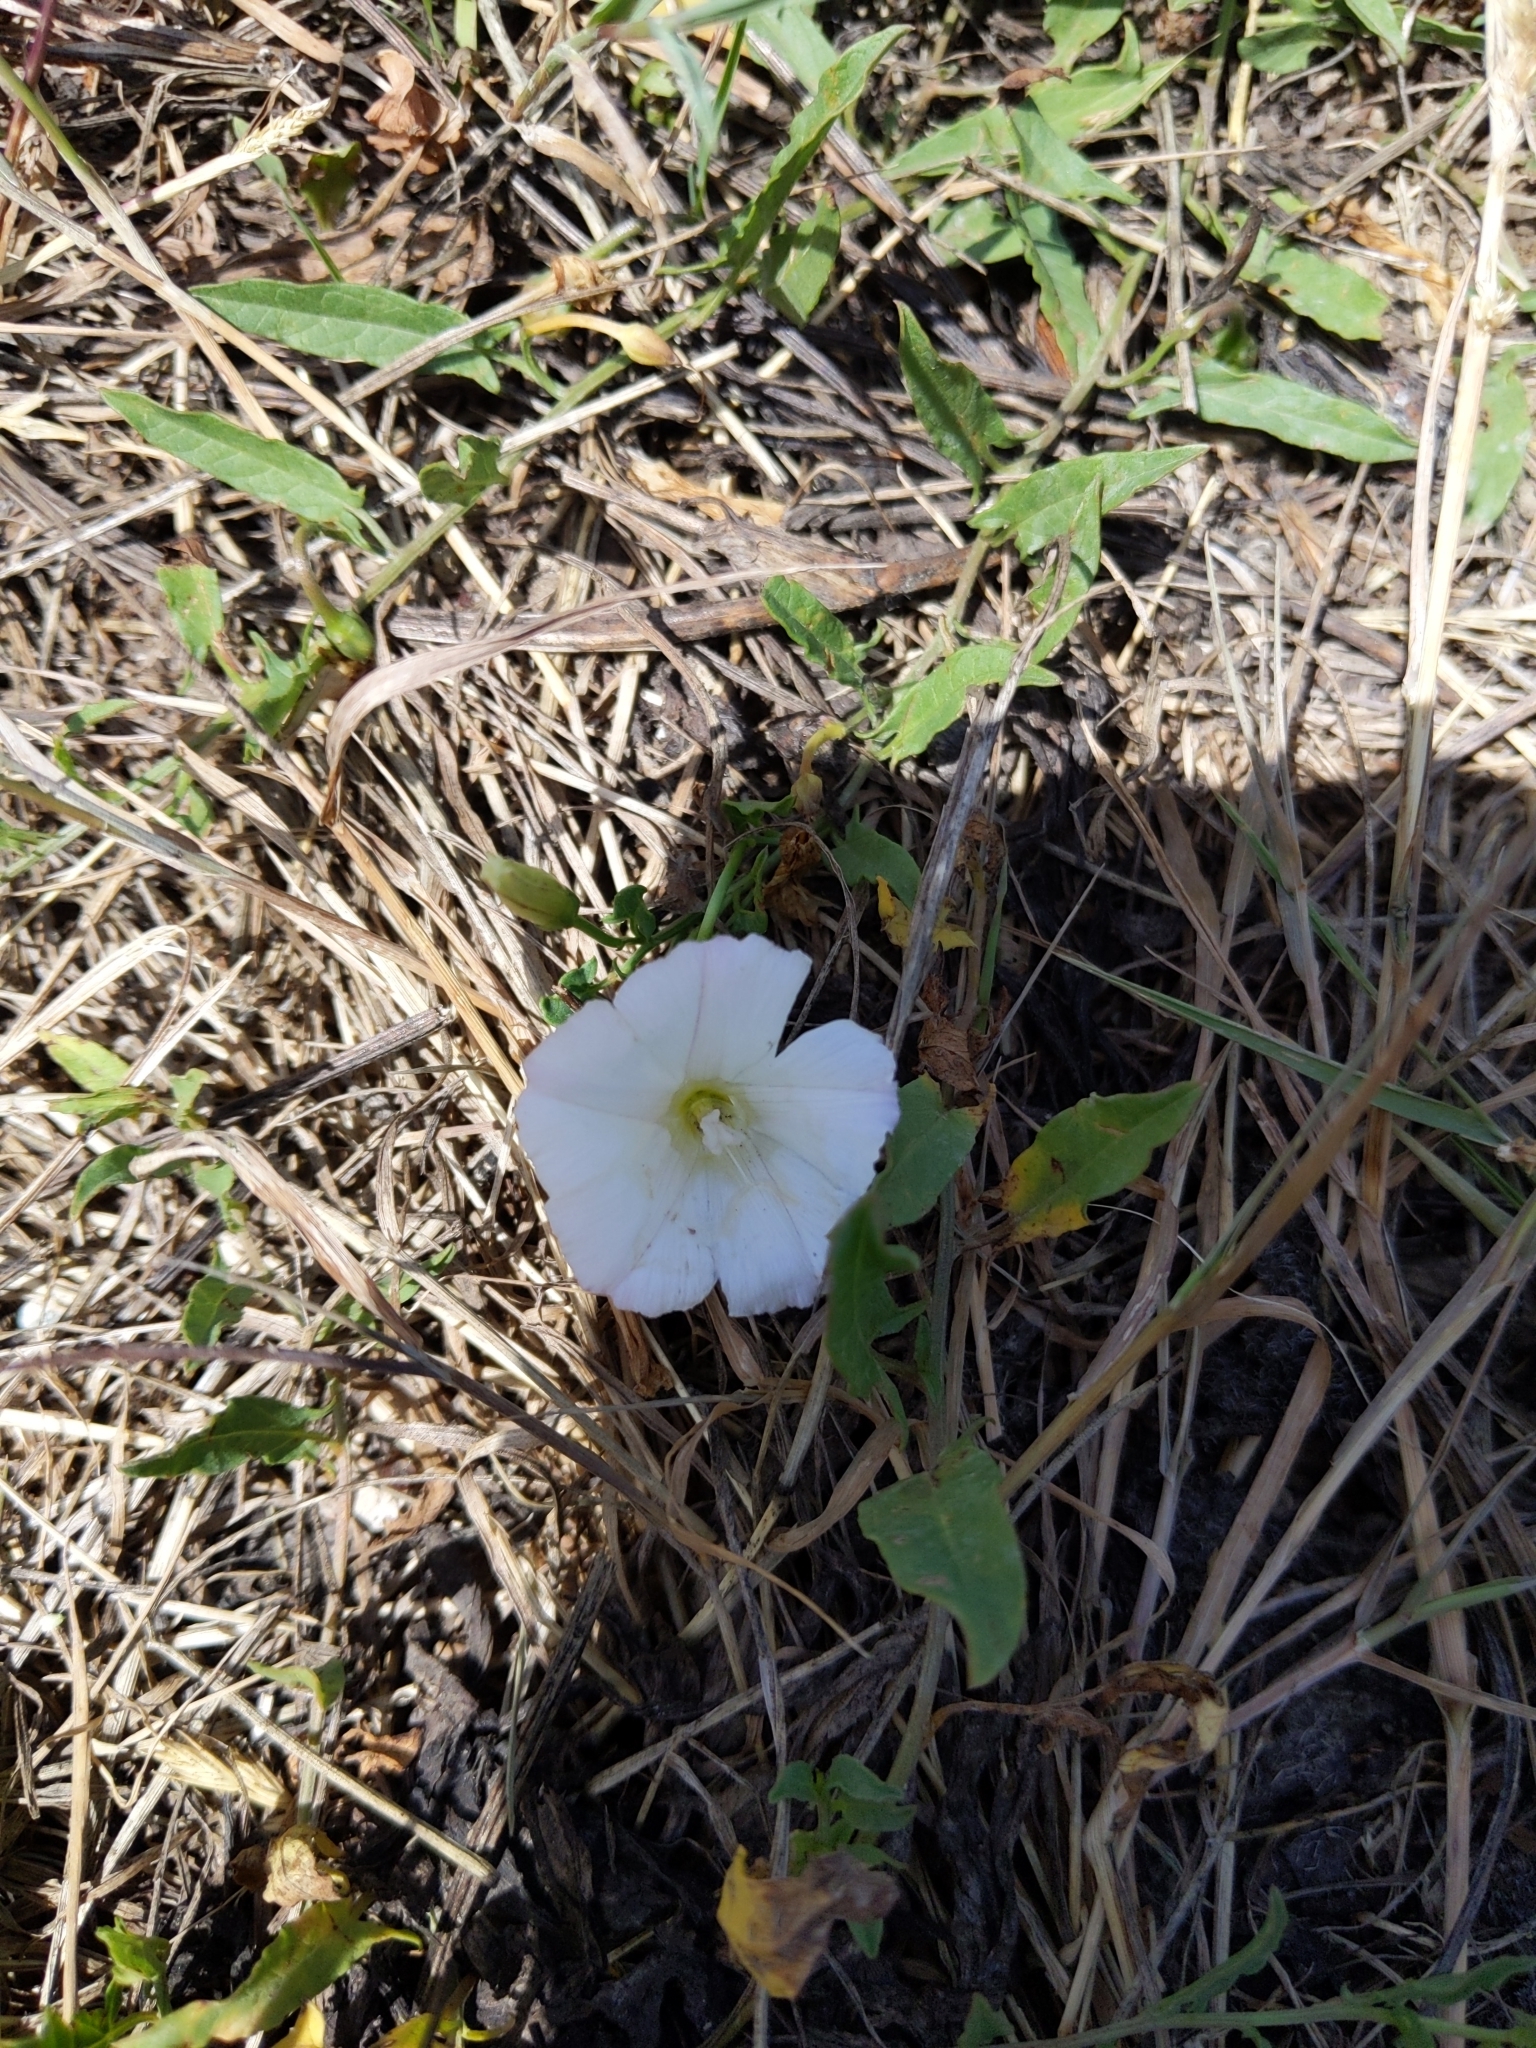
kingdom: Plantae
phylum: Tracheophyta
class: Magnoliopsida
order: Solanales
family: Convolvulaceae
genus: Convolvulus
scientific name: Convolvulus arvensis
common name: Field bindweed
